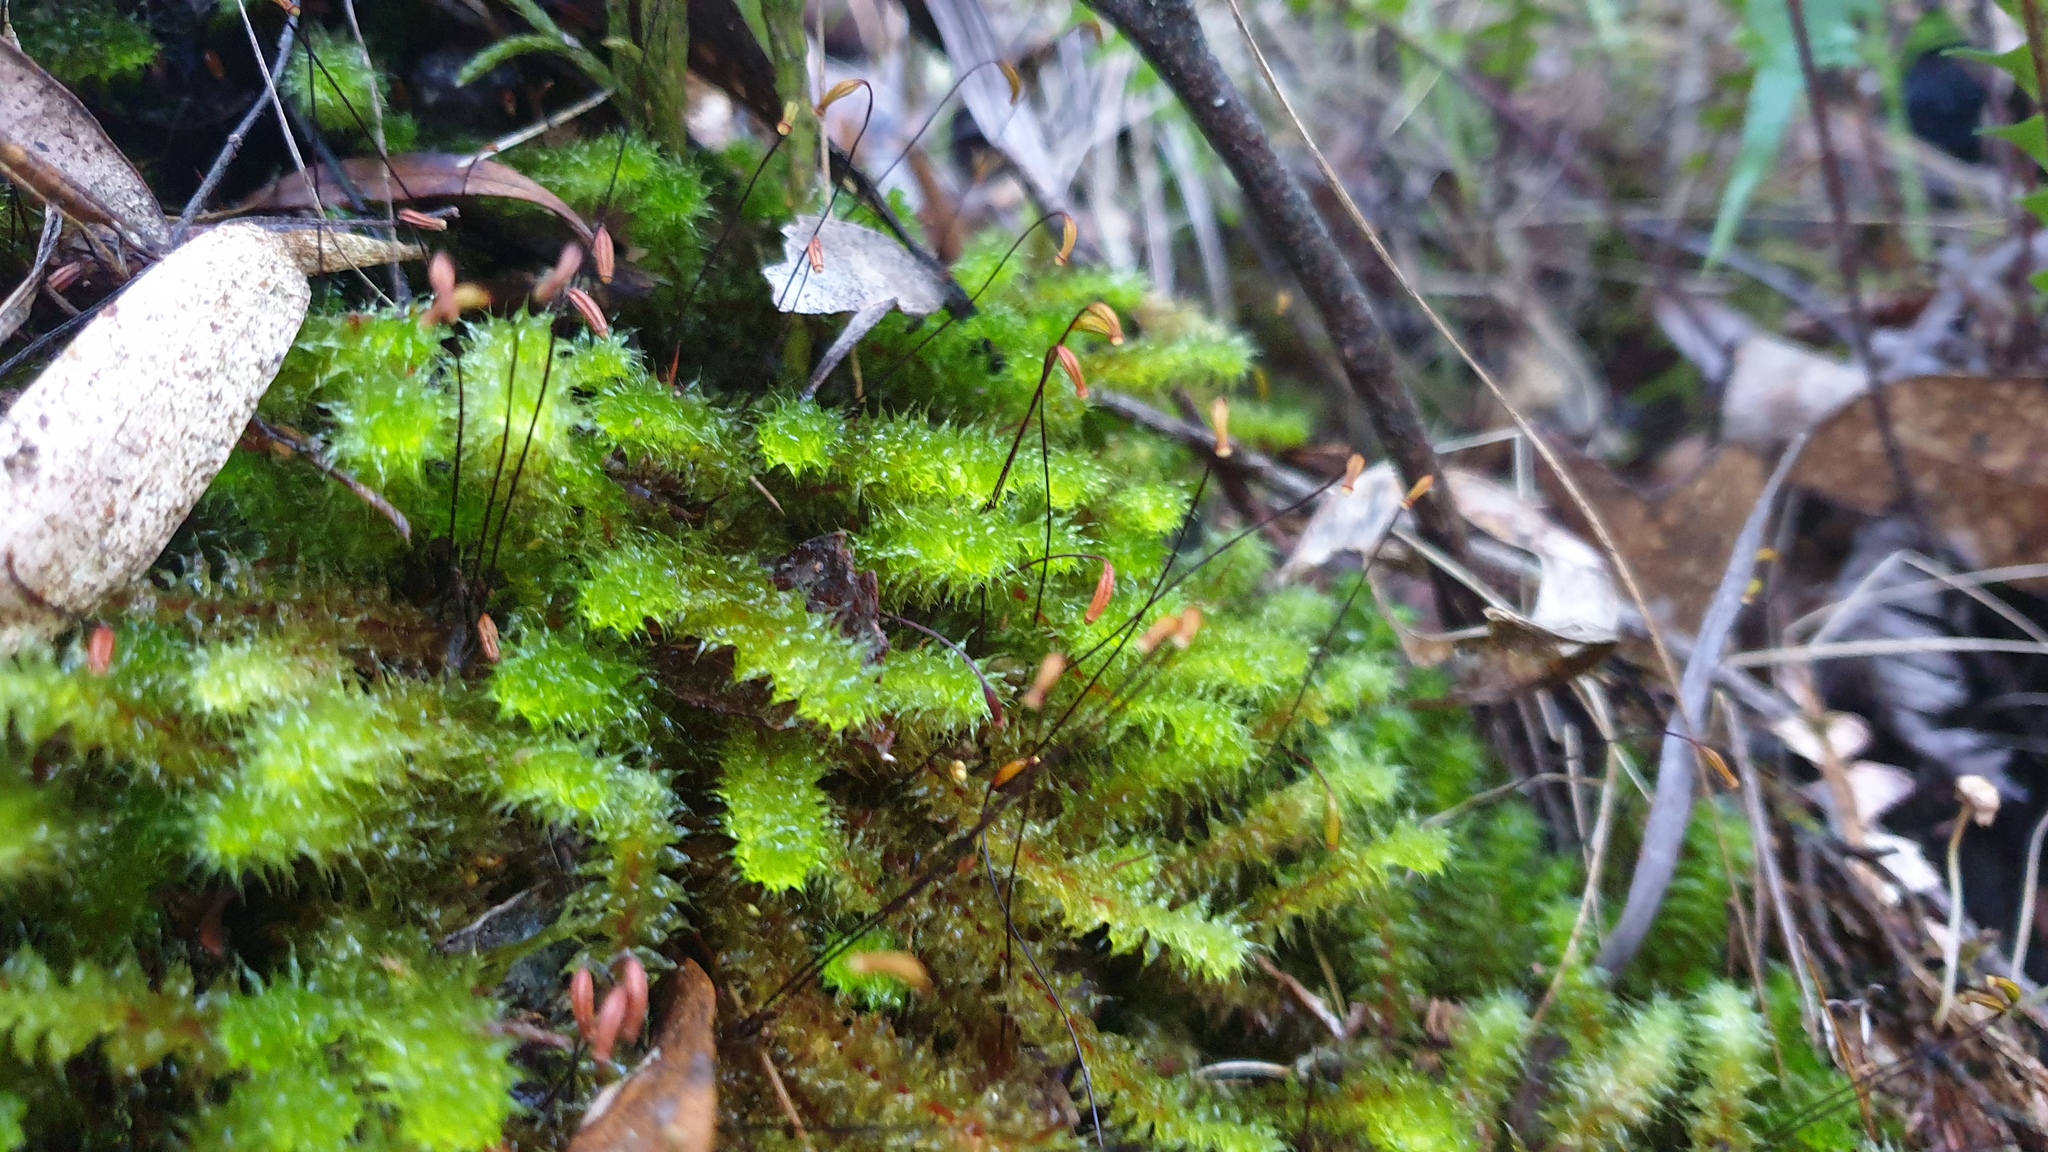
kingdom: Plantae
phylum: Bryophyta
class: Bryopsida
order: Ptychomniales
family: Ptychomniaceae
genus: Ptychomnion
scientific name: Ptychomnion aciculare
